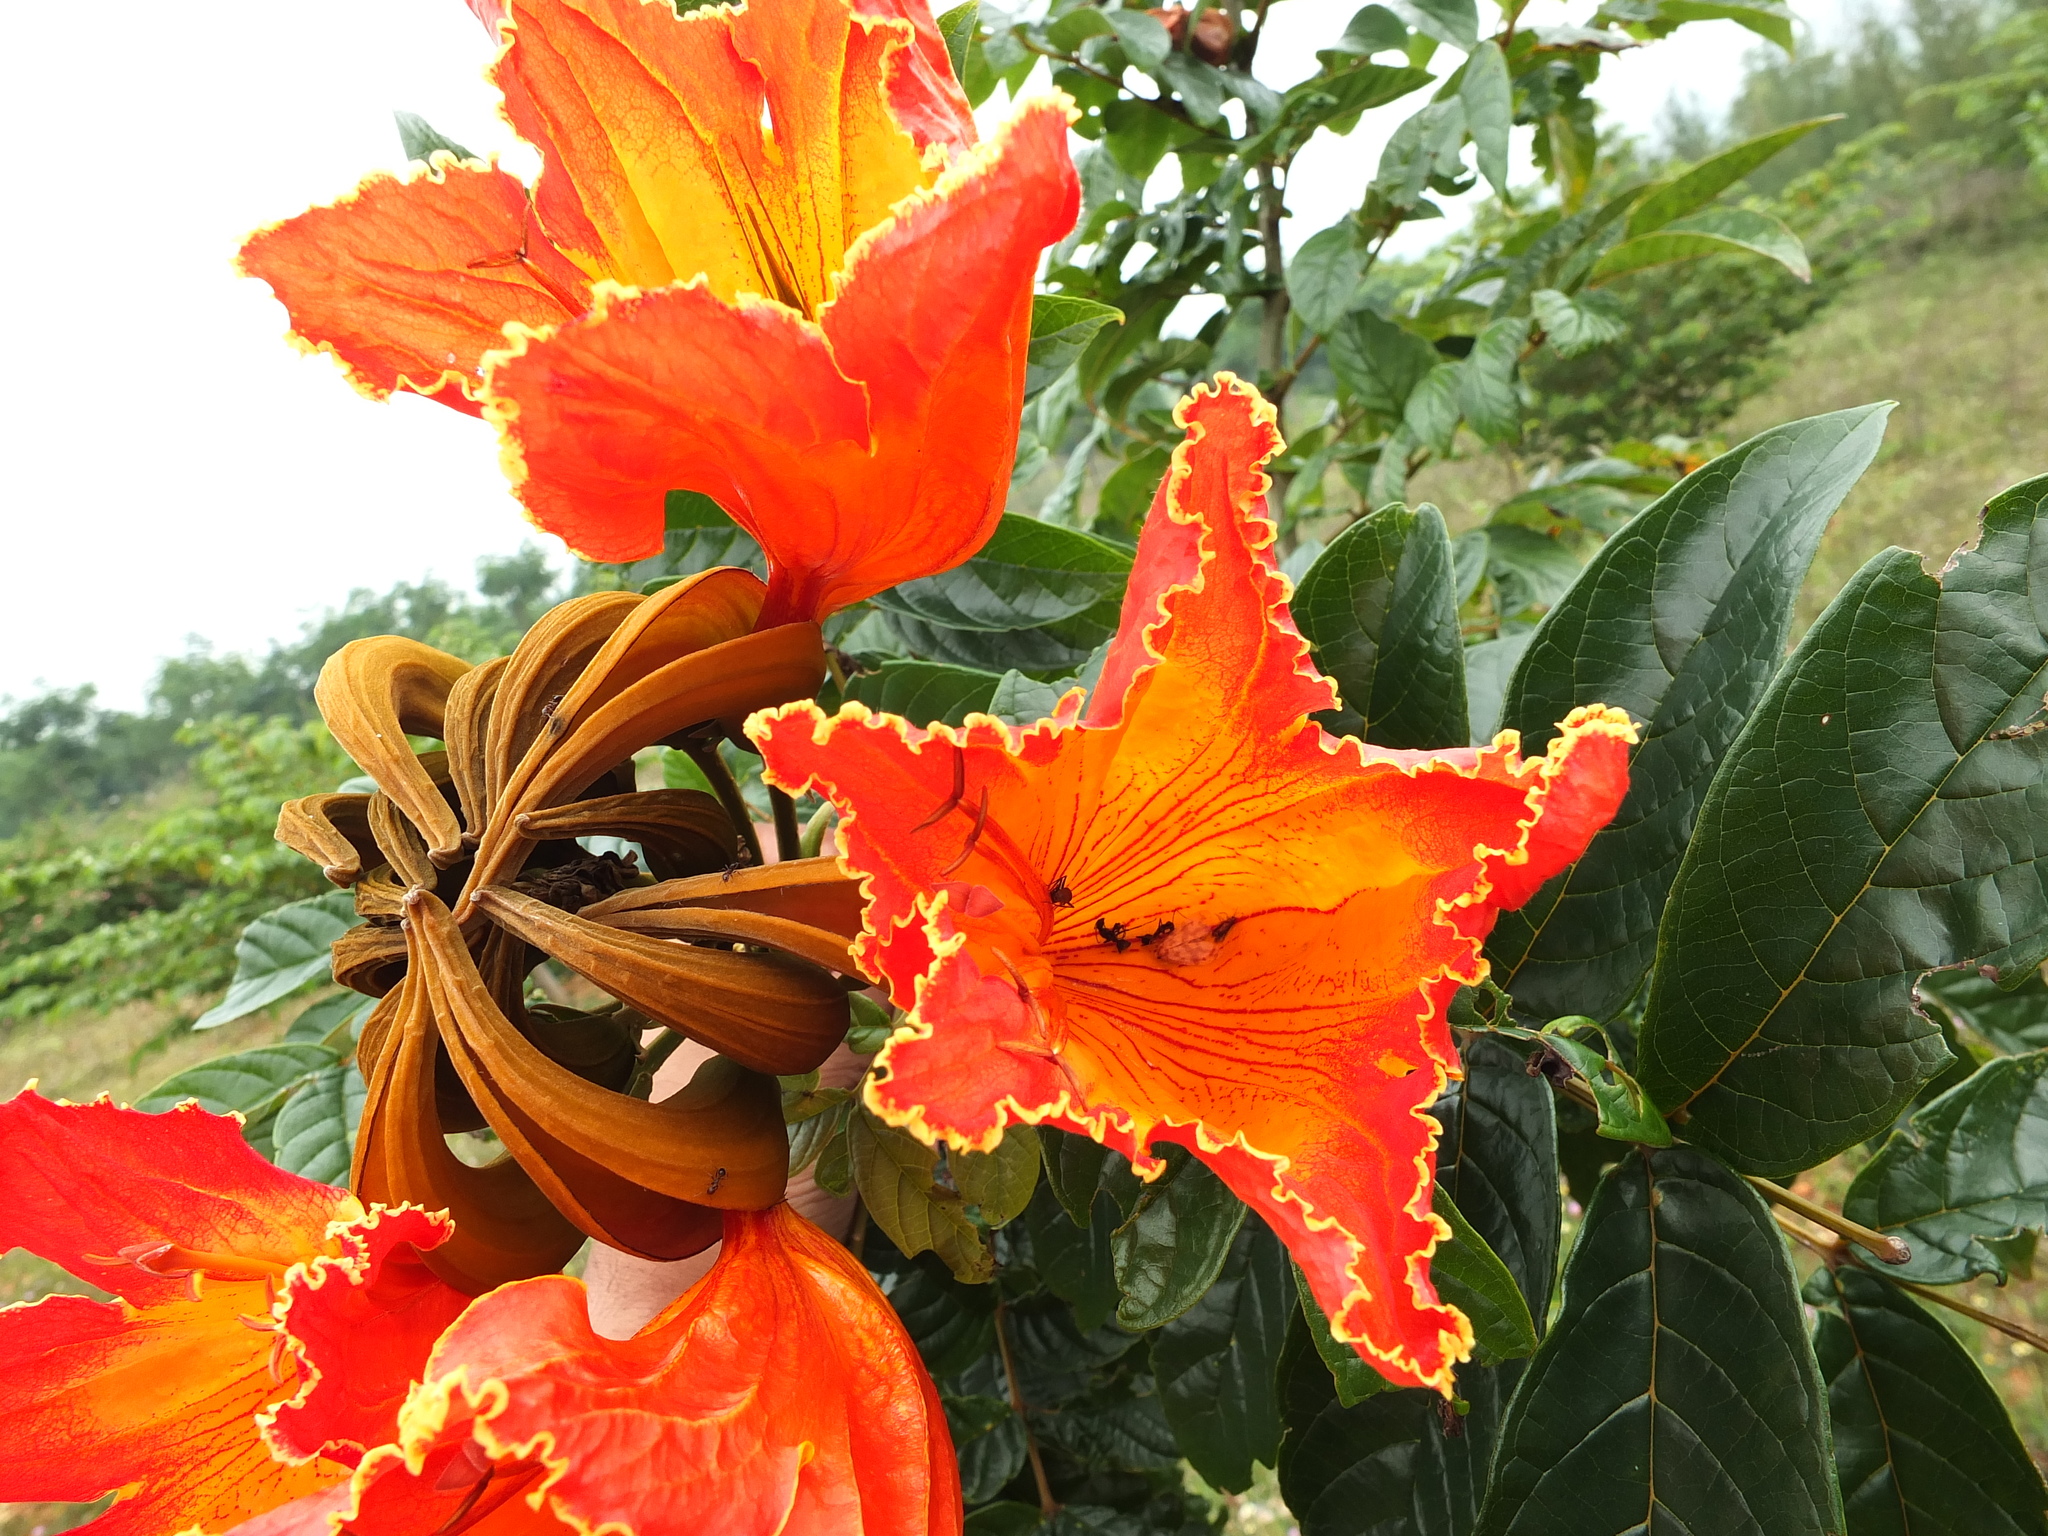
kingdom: Plantae
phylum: Tracheophyta
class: Magnoliopsida
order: Lamiales
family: Bignoniaceae
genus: Spathodea
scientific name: Spathodea campanulata
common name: African tuliptree
